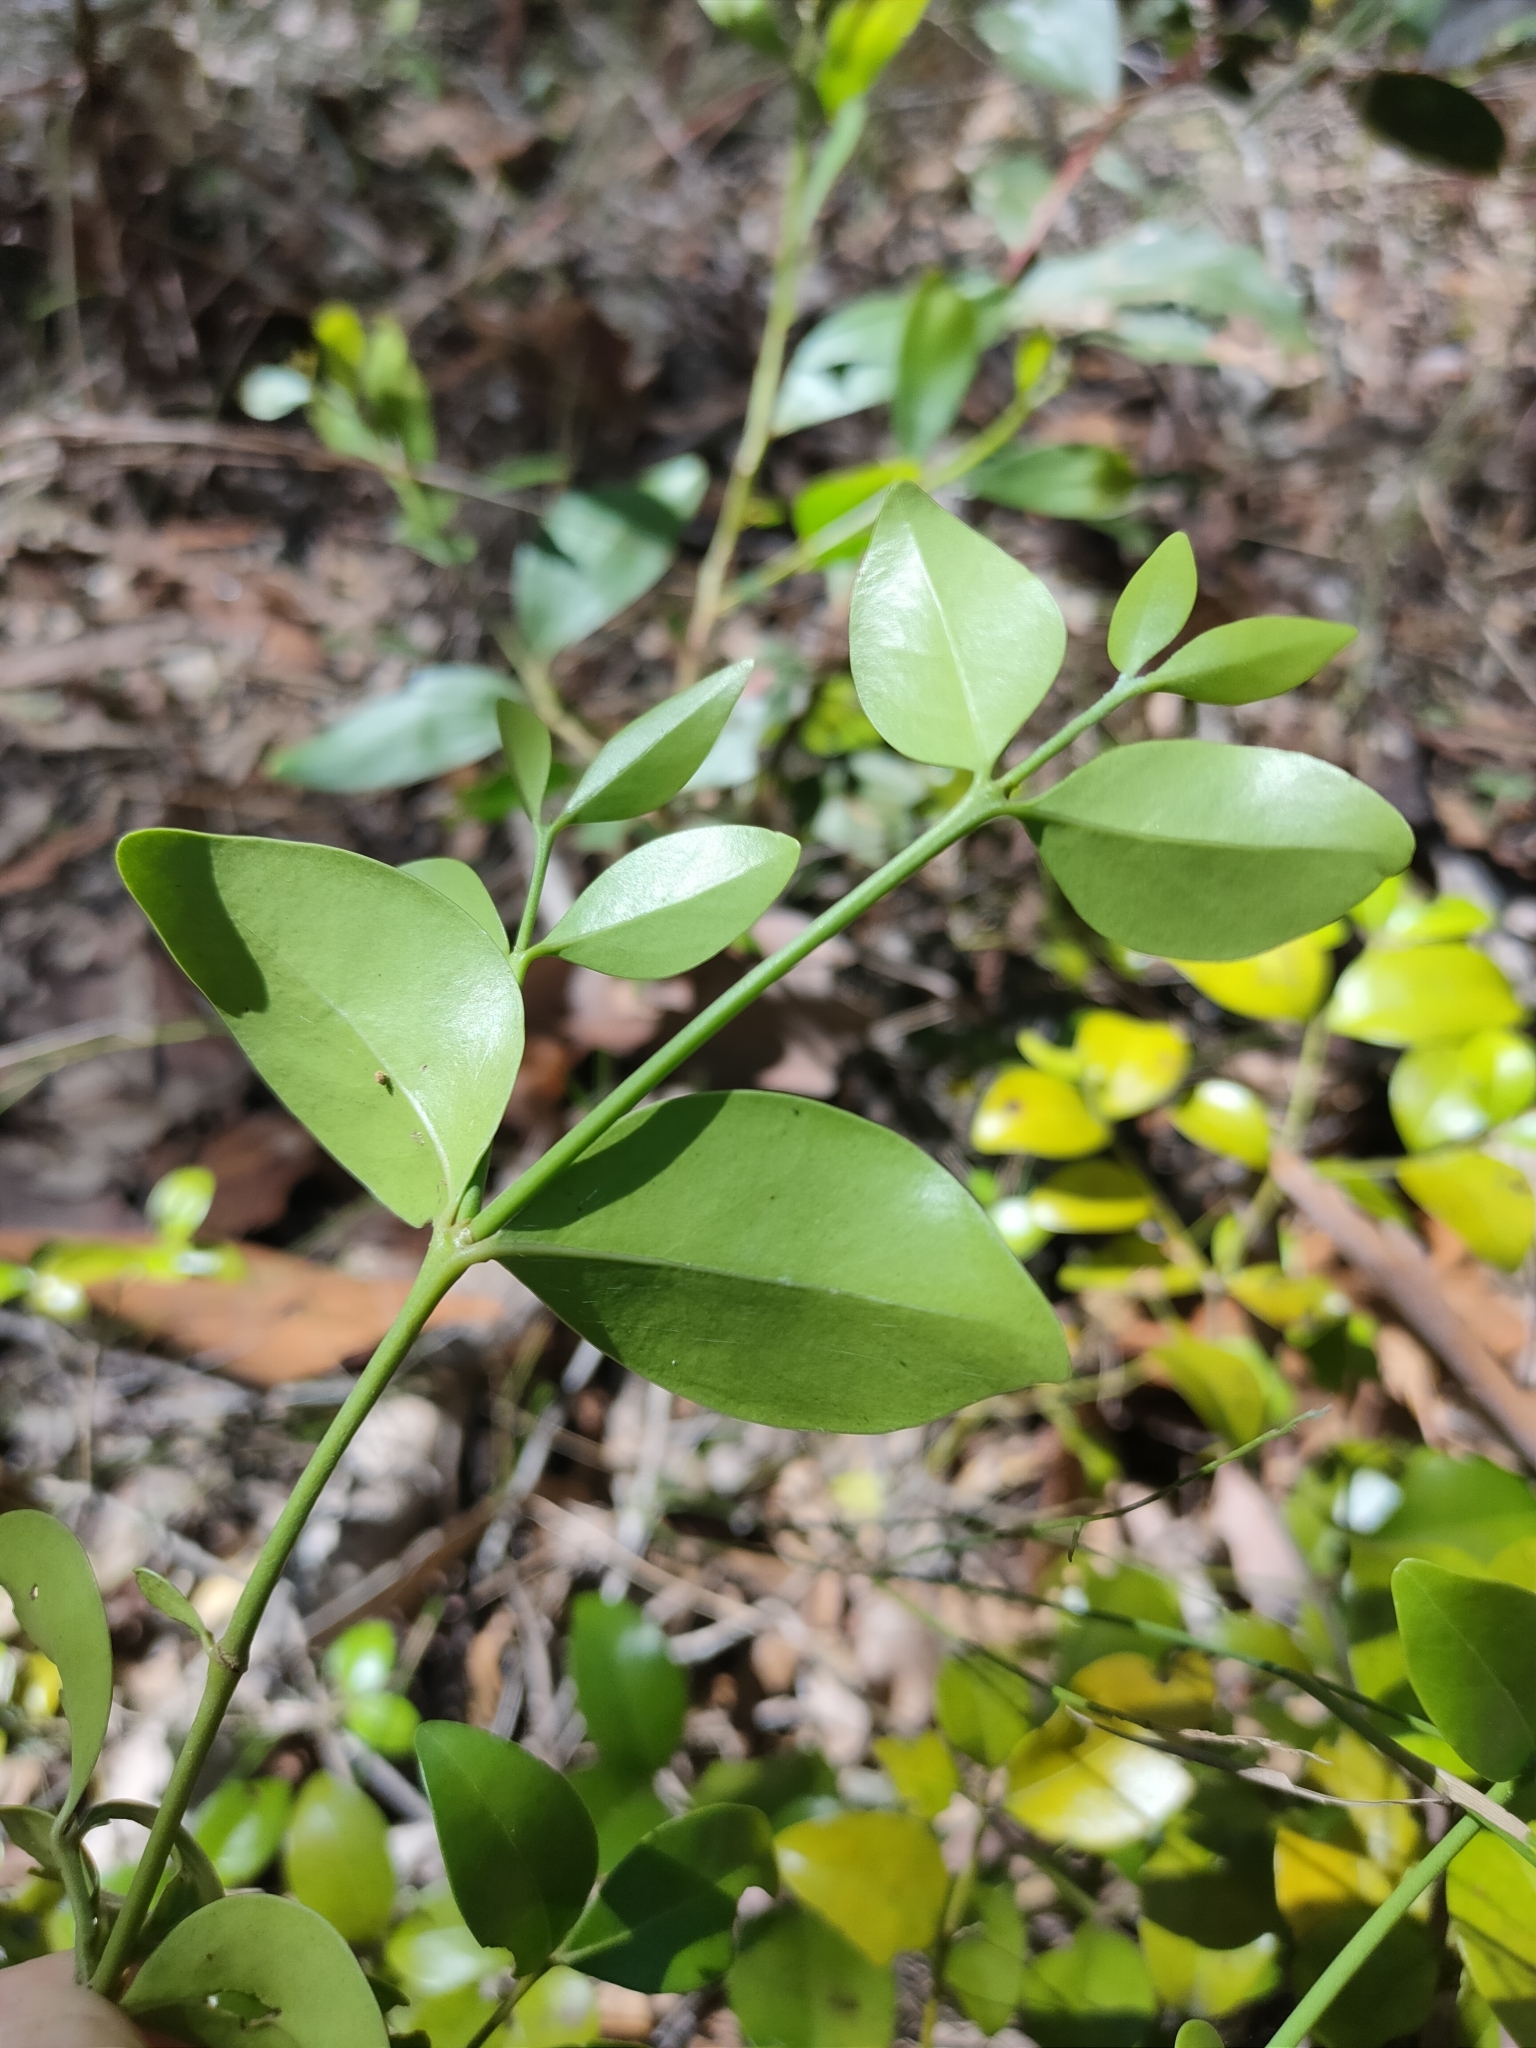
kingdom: Plantae
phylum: Tracheophyta
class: Magnoliopsida
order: Gentianales
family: Rubiaceae
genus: Psydrax
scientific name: Psydrax odoratus
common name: Alahe'e
